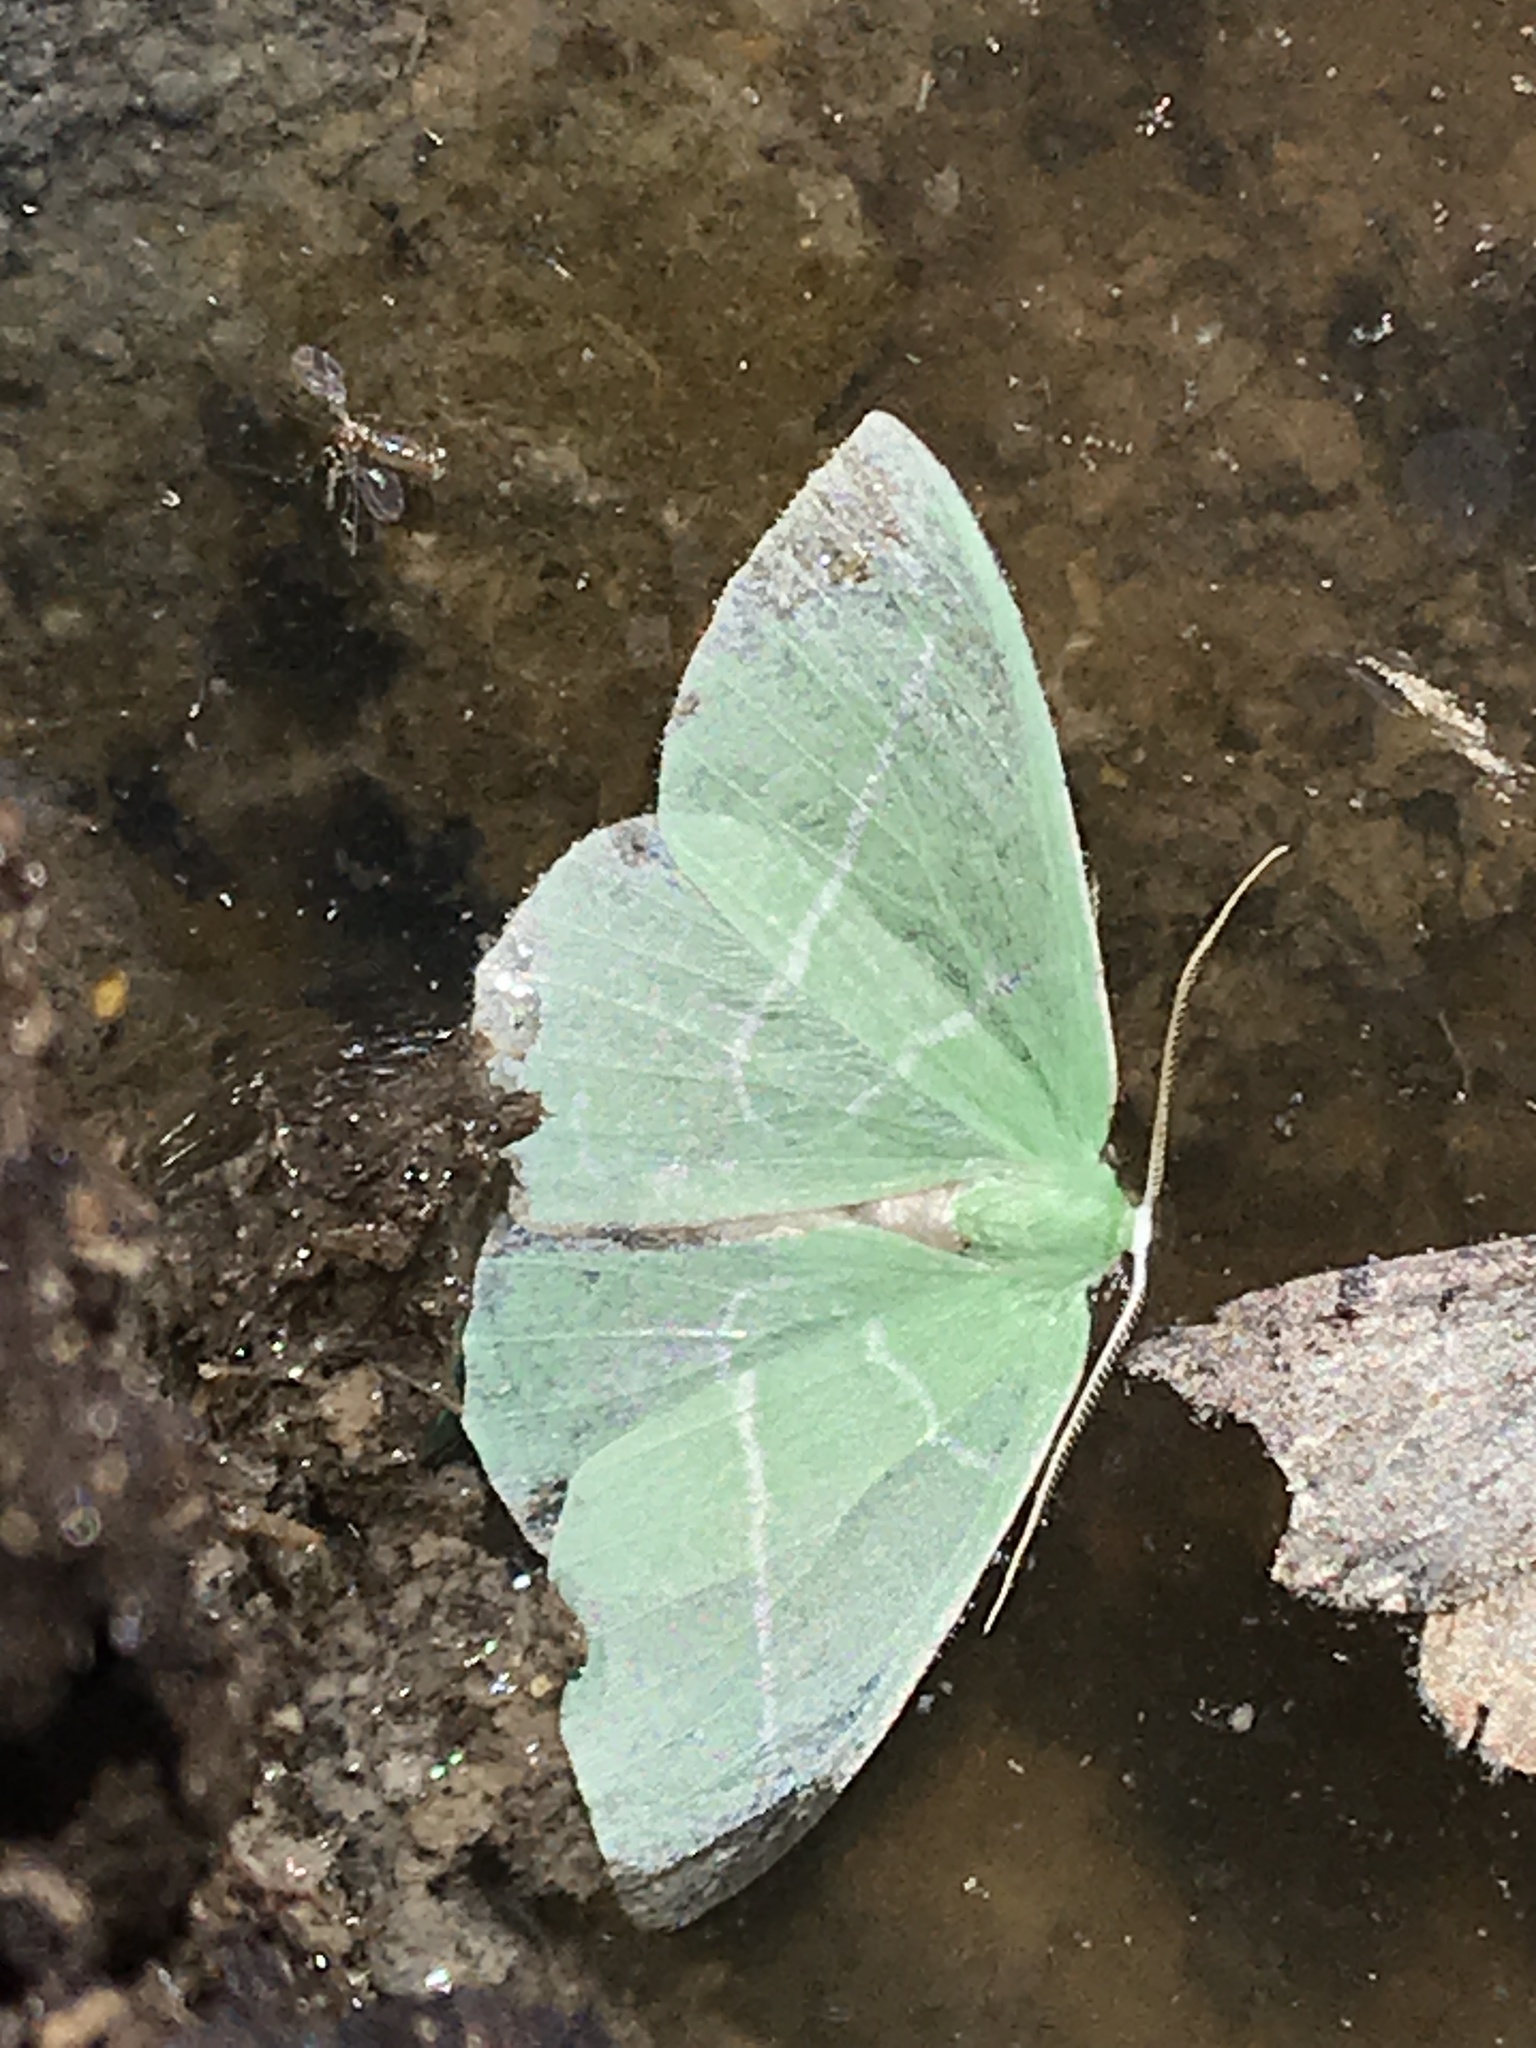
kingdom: Animalia
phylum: Arthropoda
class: Insecta
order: Lepidoptera
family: Geometridae
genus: Nemoria
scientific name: Nemoria unitaria
